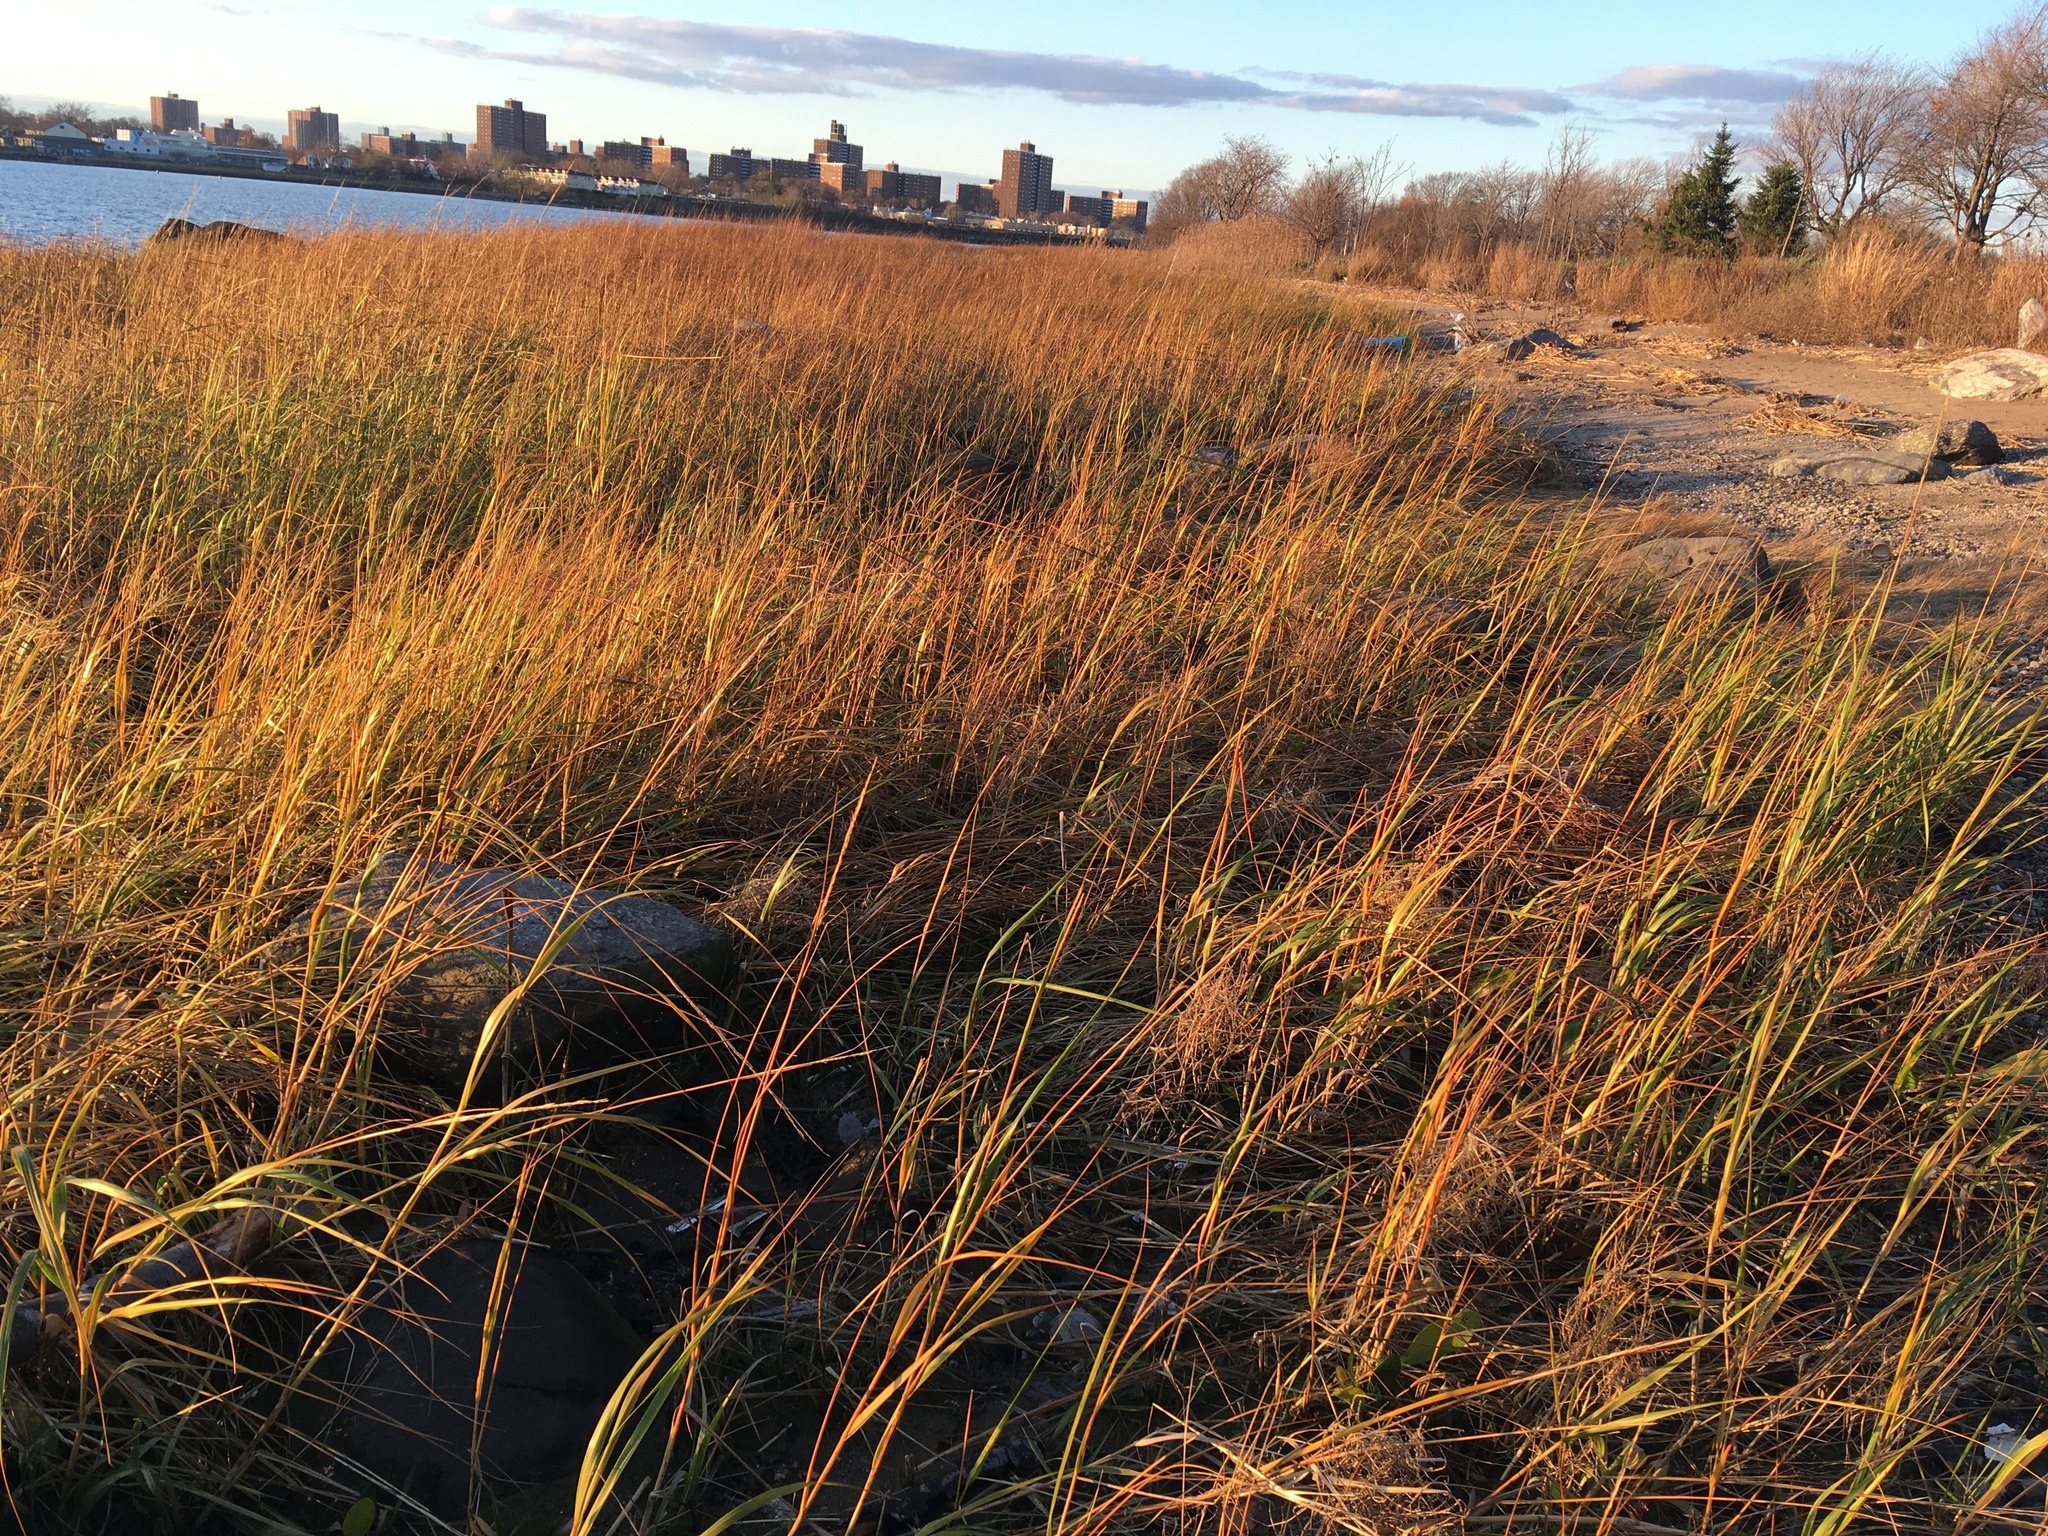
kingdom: Plantae
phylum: Tracheophyta
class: Liliopsida
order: Poales
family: Poaceae
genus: Sporobolus
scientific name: Sporobolus alterniflorus
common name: Atlantic cordgrass
